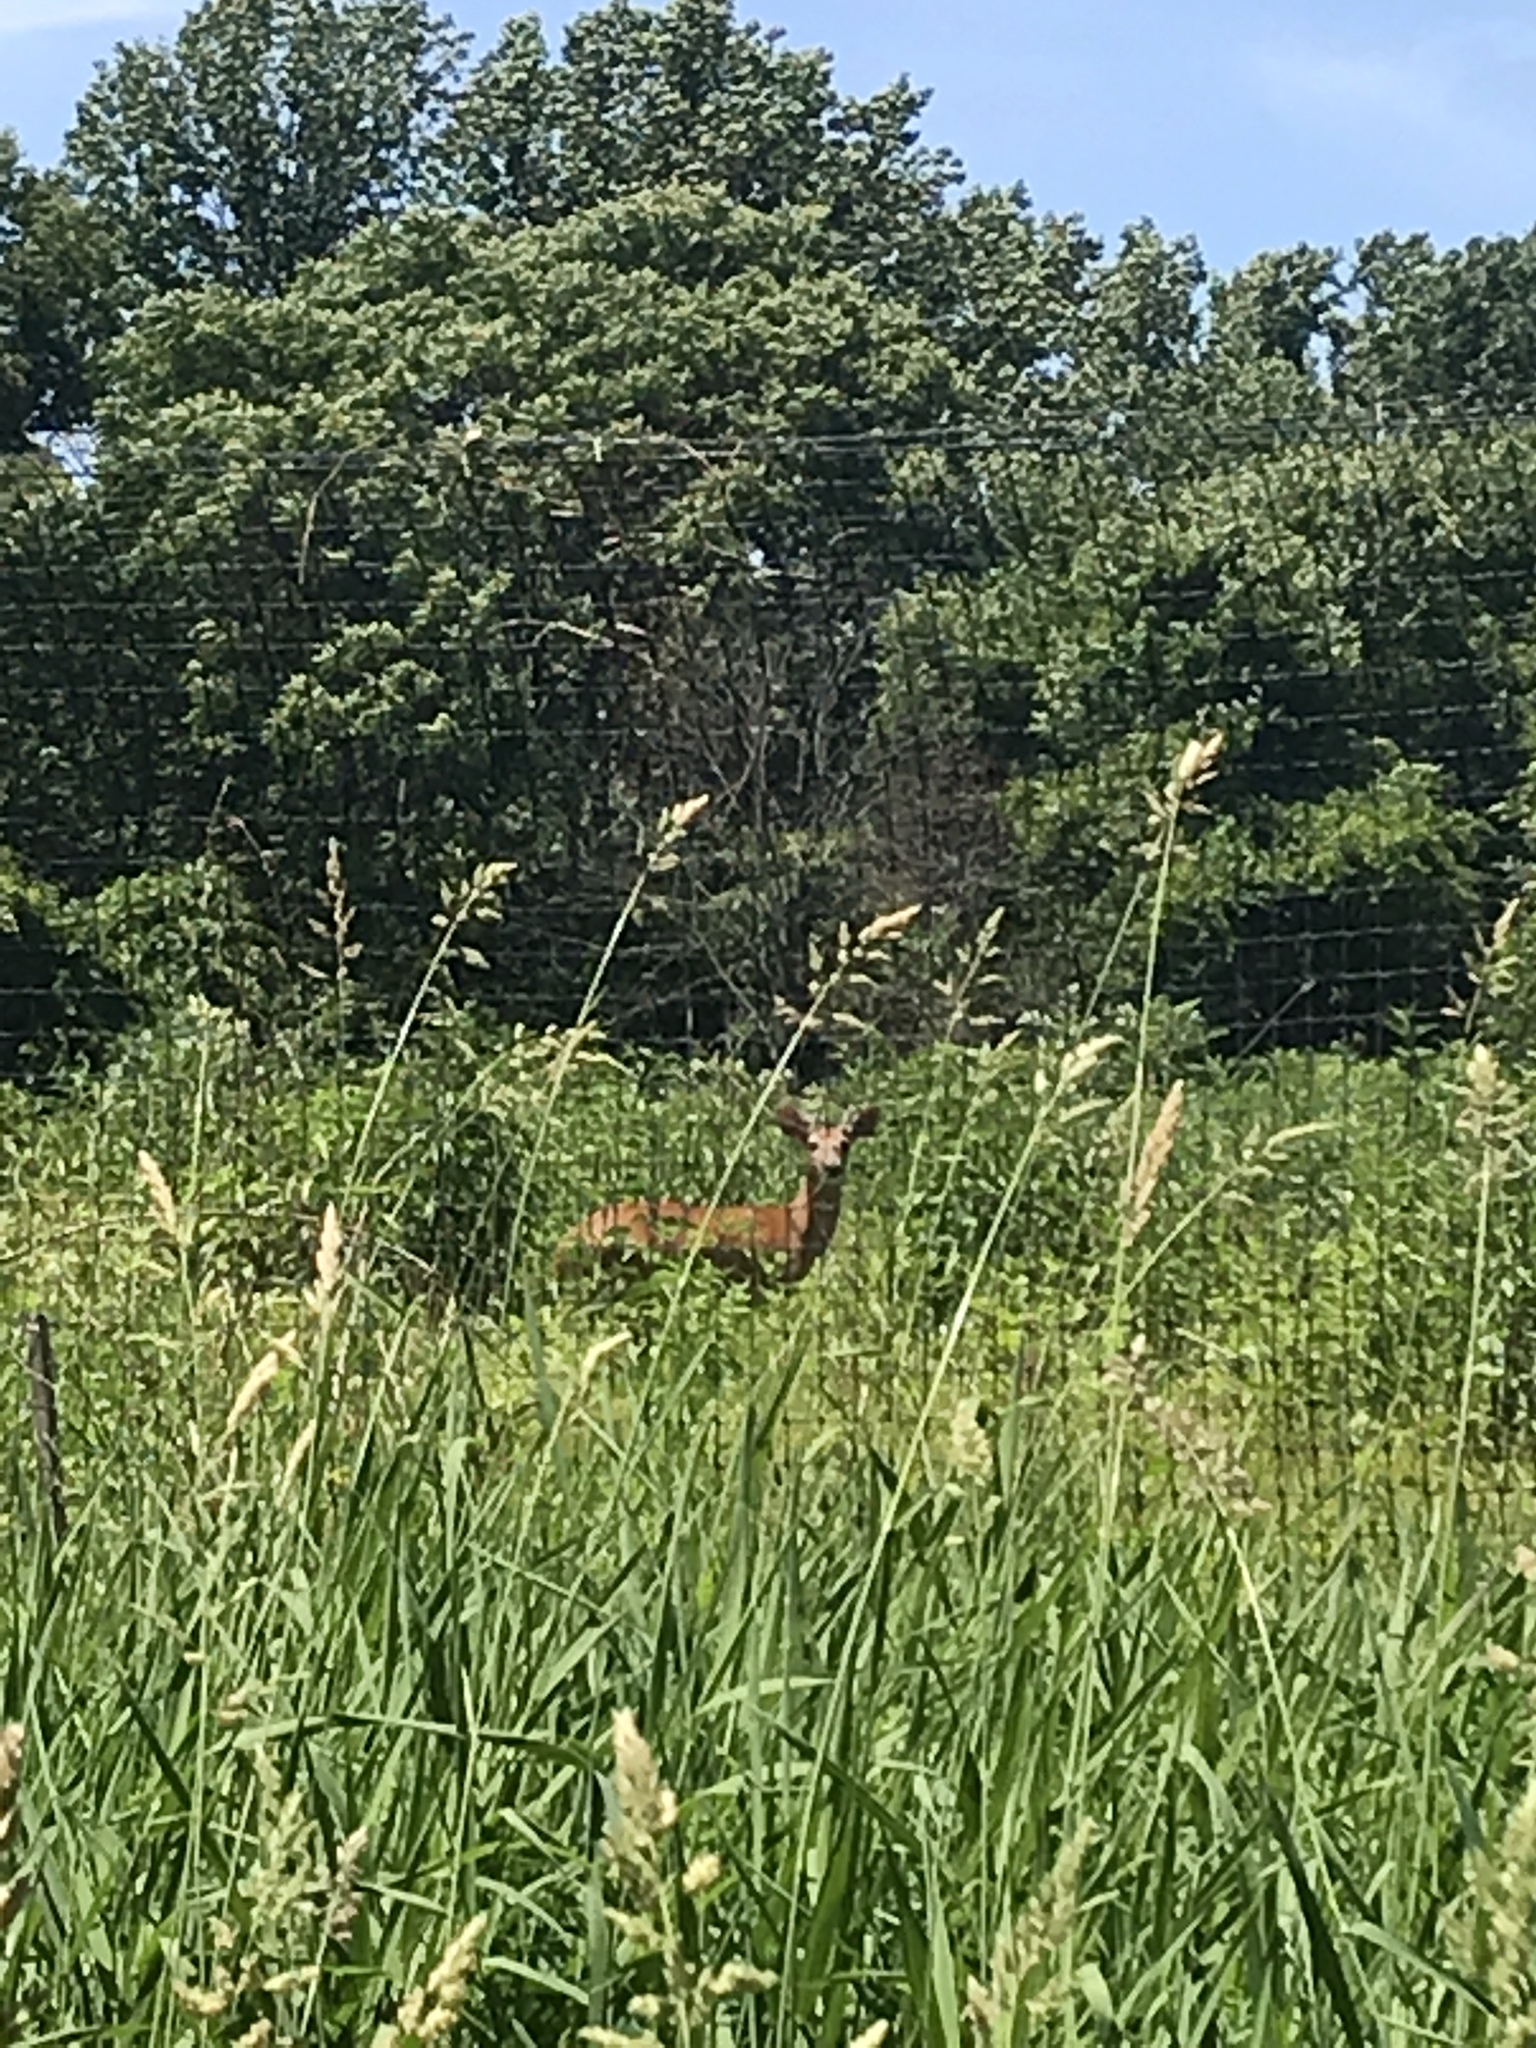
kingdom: Animalia
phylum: Chordata
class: Mammalia
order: Artiodactyla
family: Cervidae
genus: Odocoileus
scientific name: Odocoileus virginianus
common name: White-tailed deer
